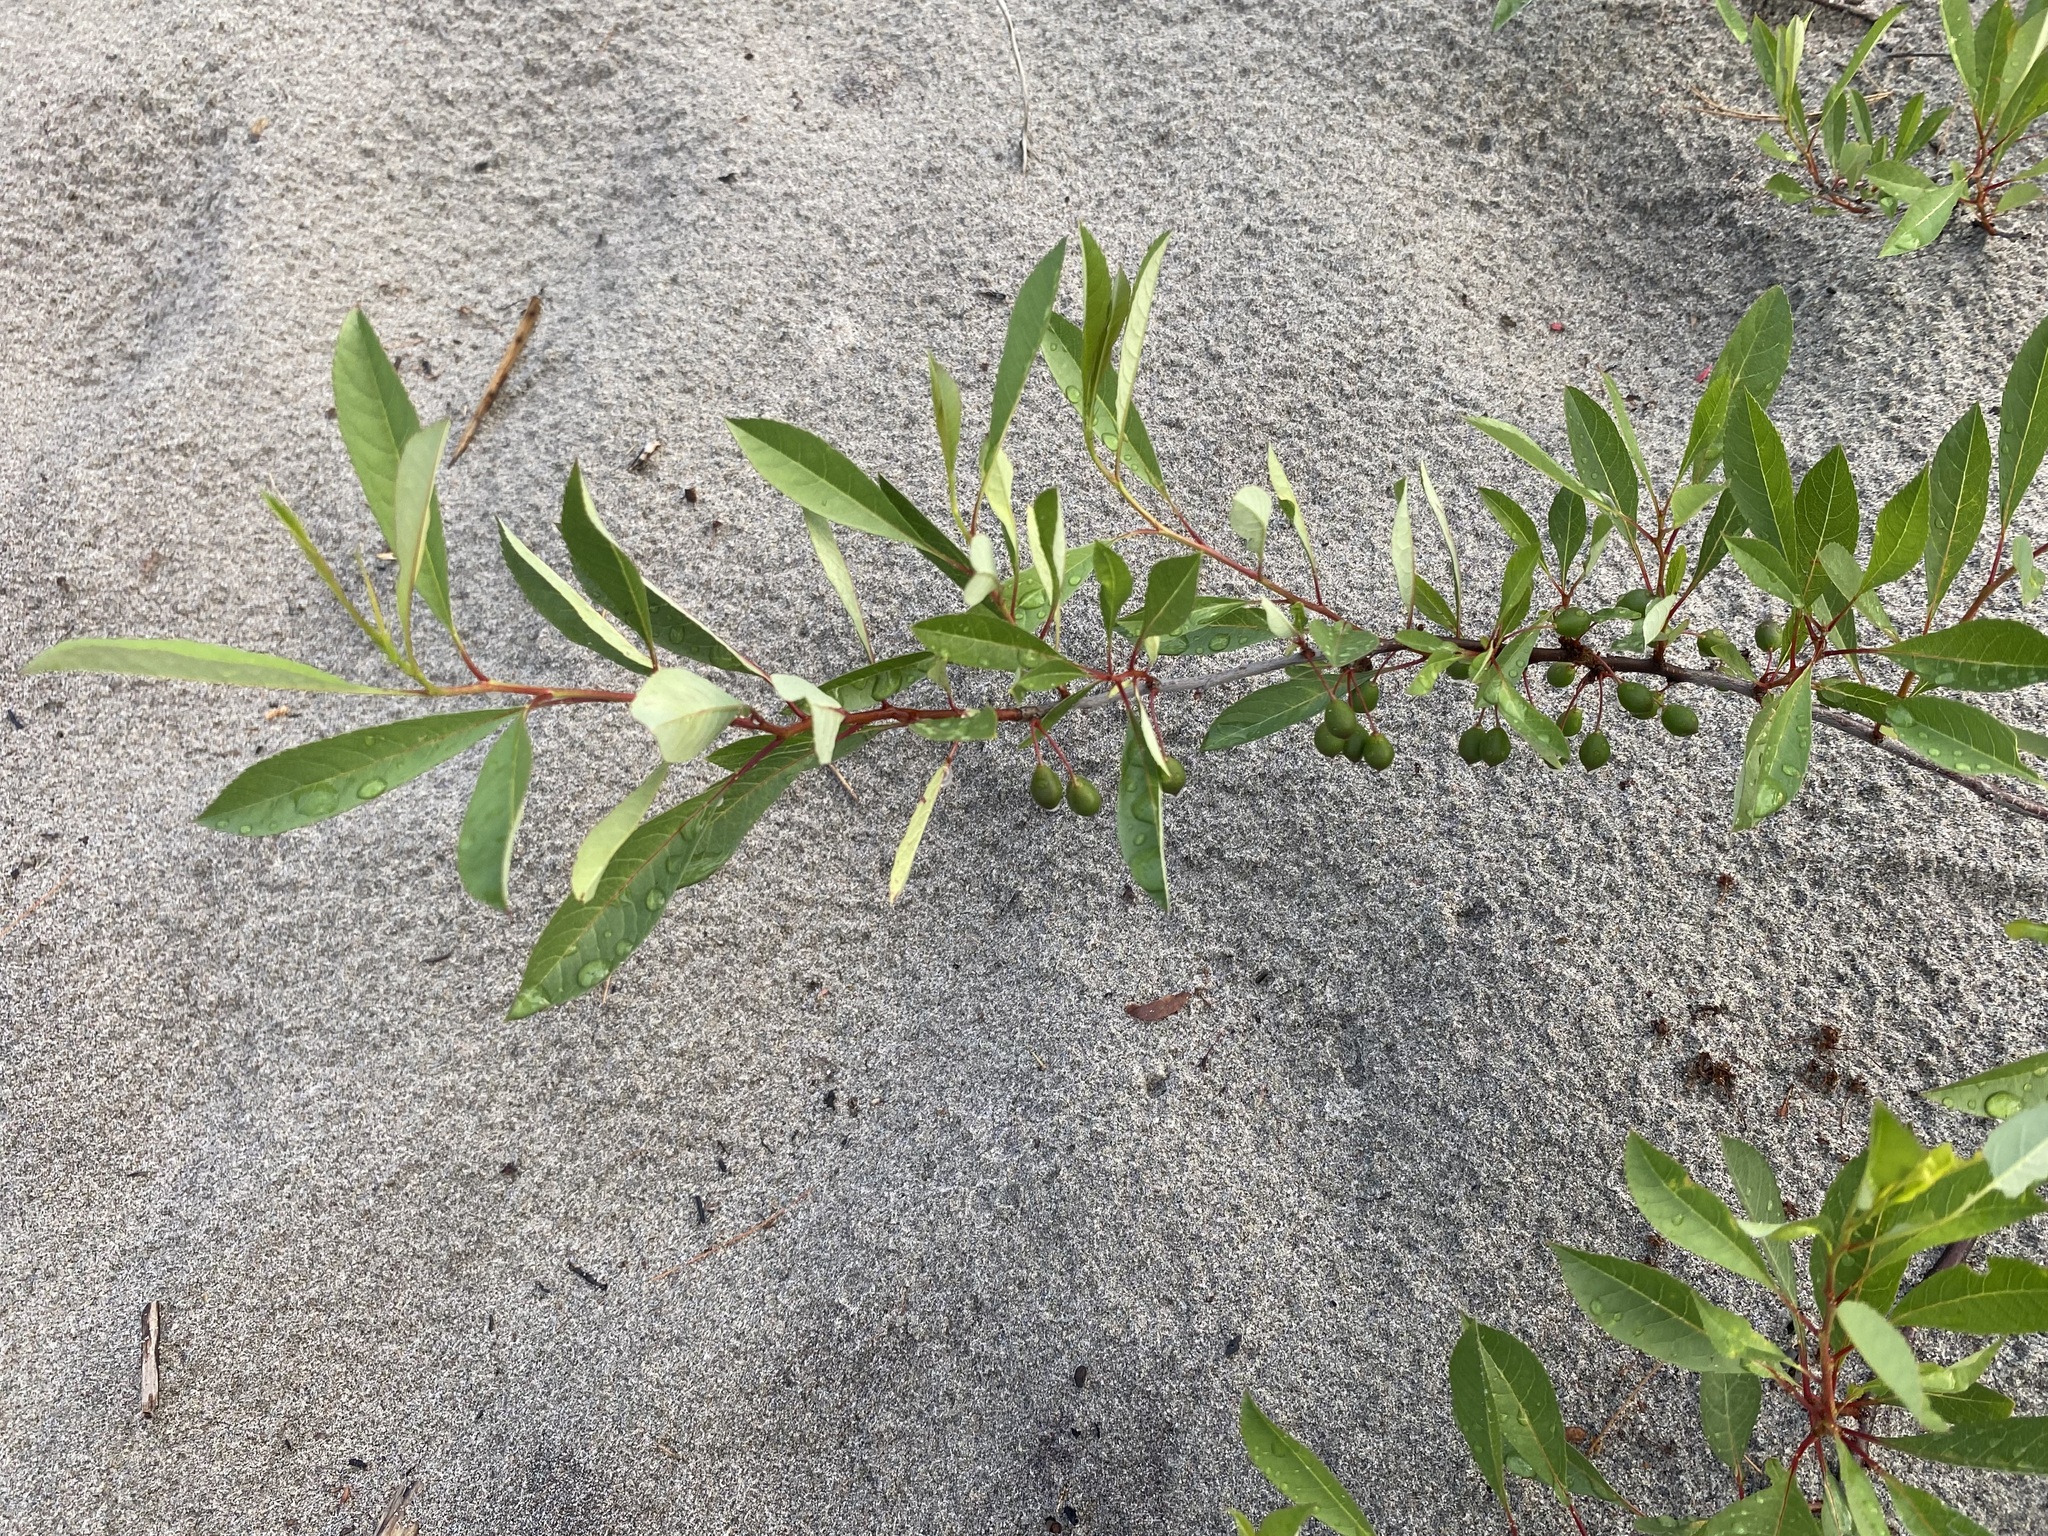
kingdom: Plantae
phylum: Tracheophyta
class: Magnoliopsida
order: Rosales
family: Rosaceae
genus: Prunus
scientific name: Prunus pumila
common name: Dwarf cherry
